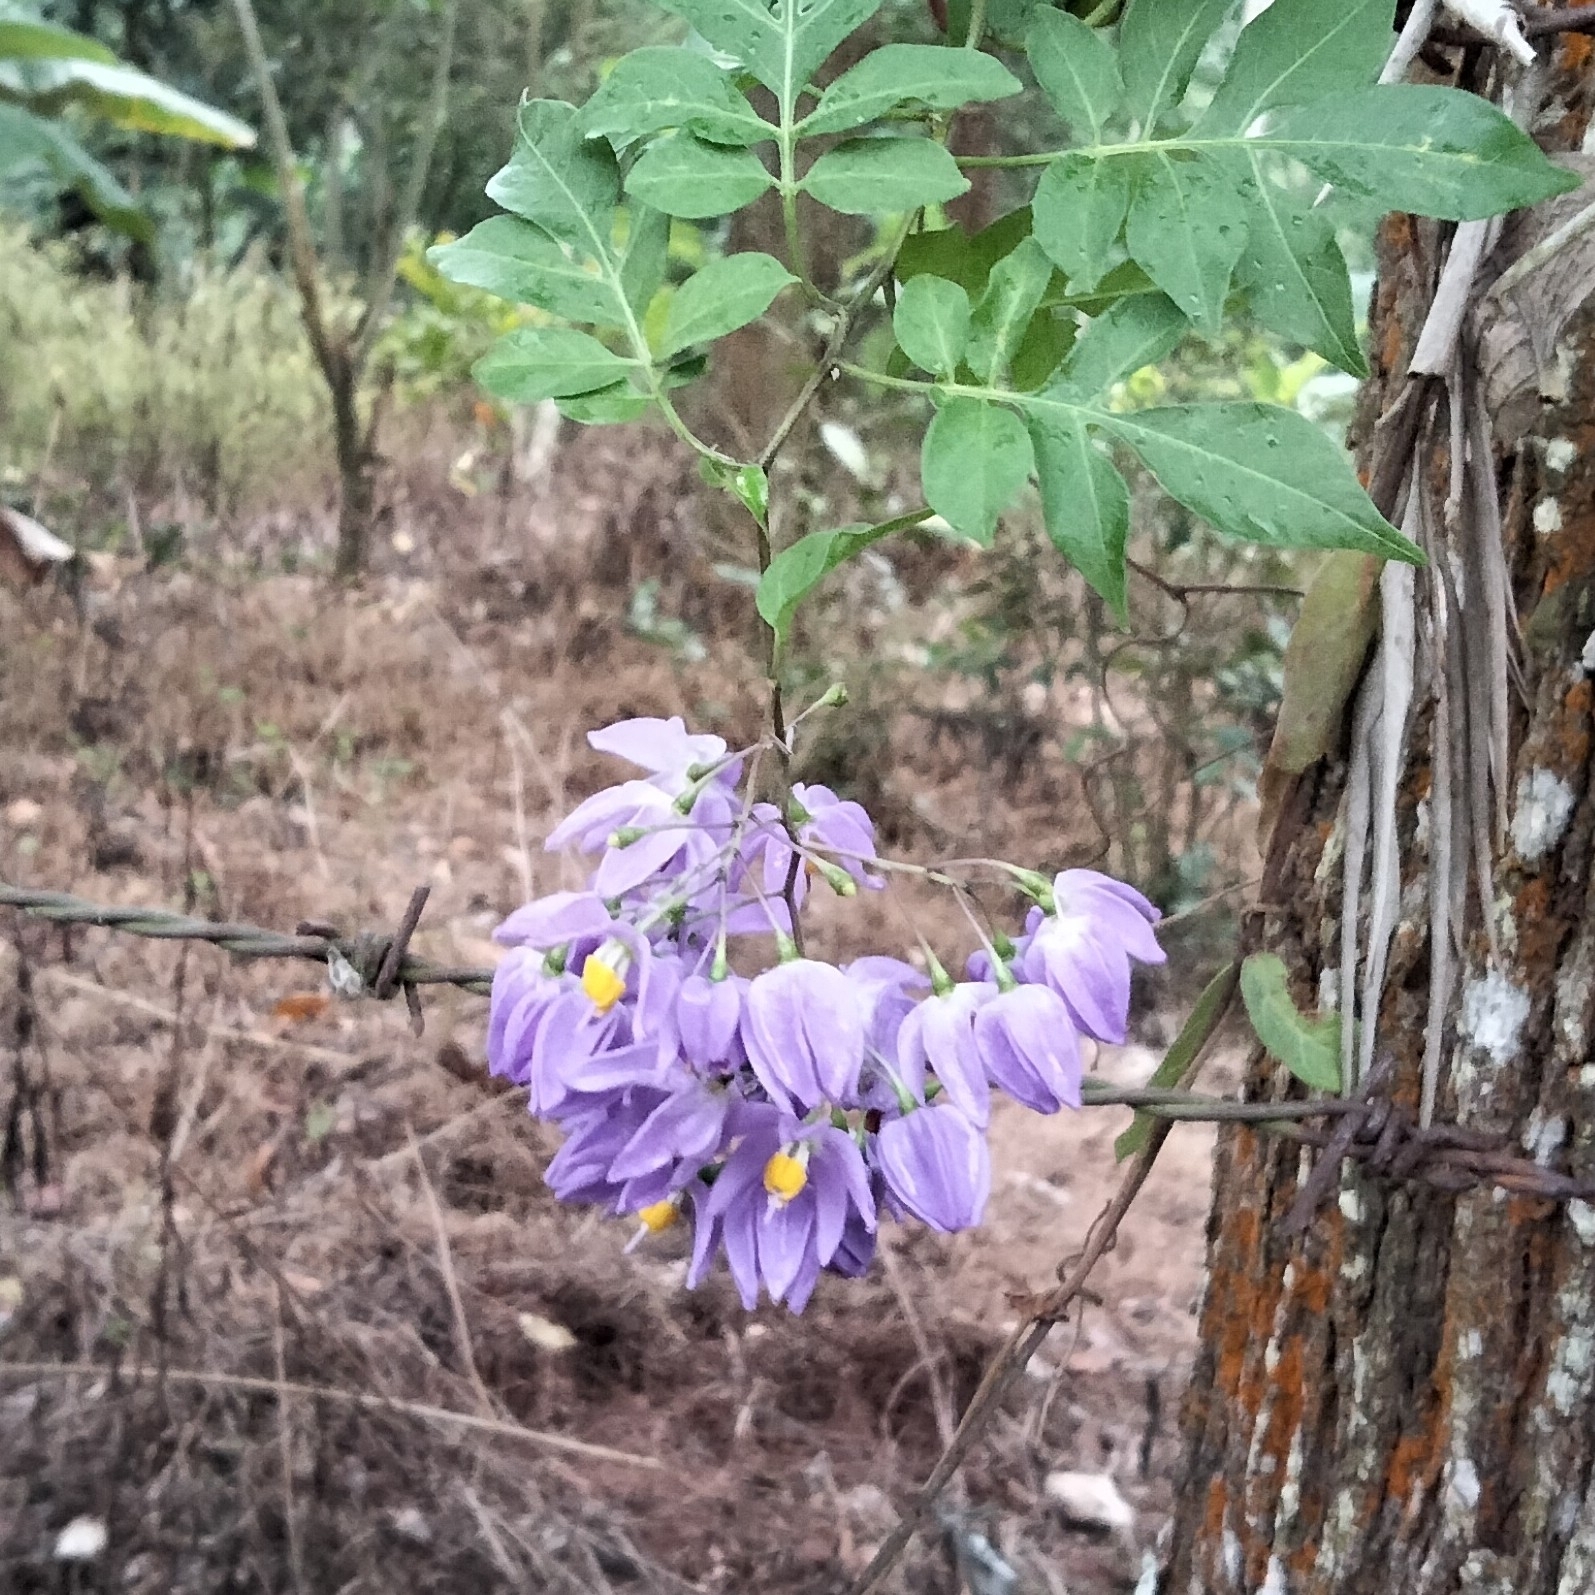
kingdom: Plantae
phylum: Tracheophyta
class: Magnoliopsida
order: Solanales
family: Solanaceae
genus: Solanum
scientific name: Solanum seaforthianum
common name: Brazilian nightshade
